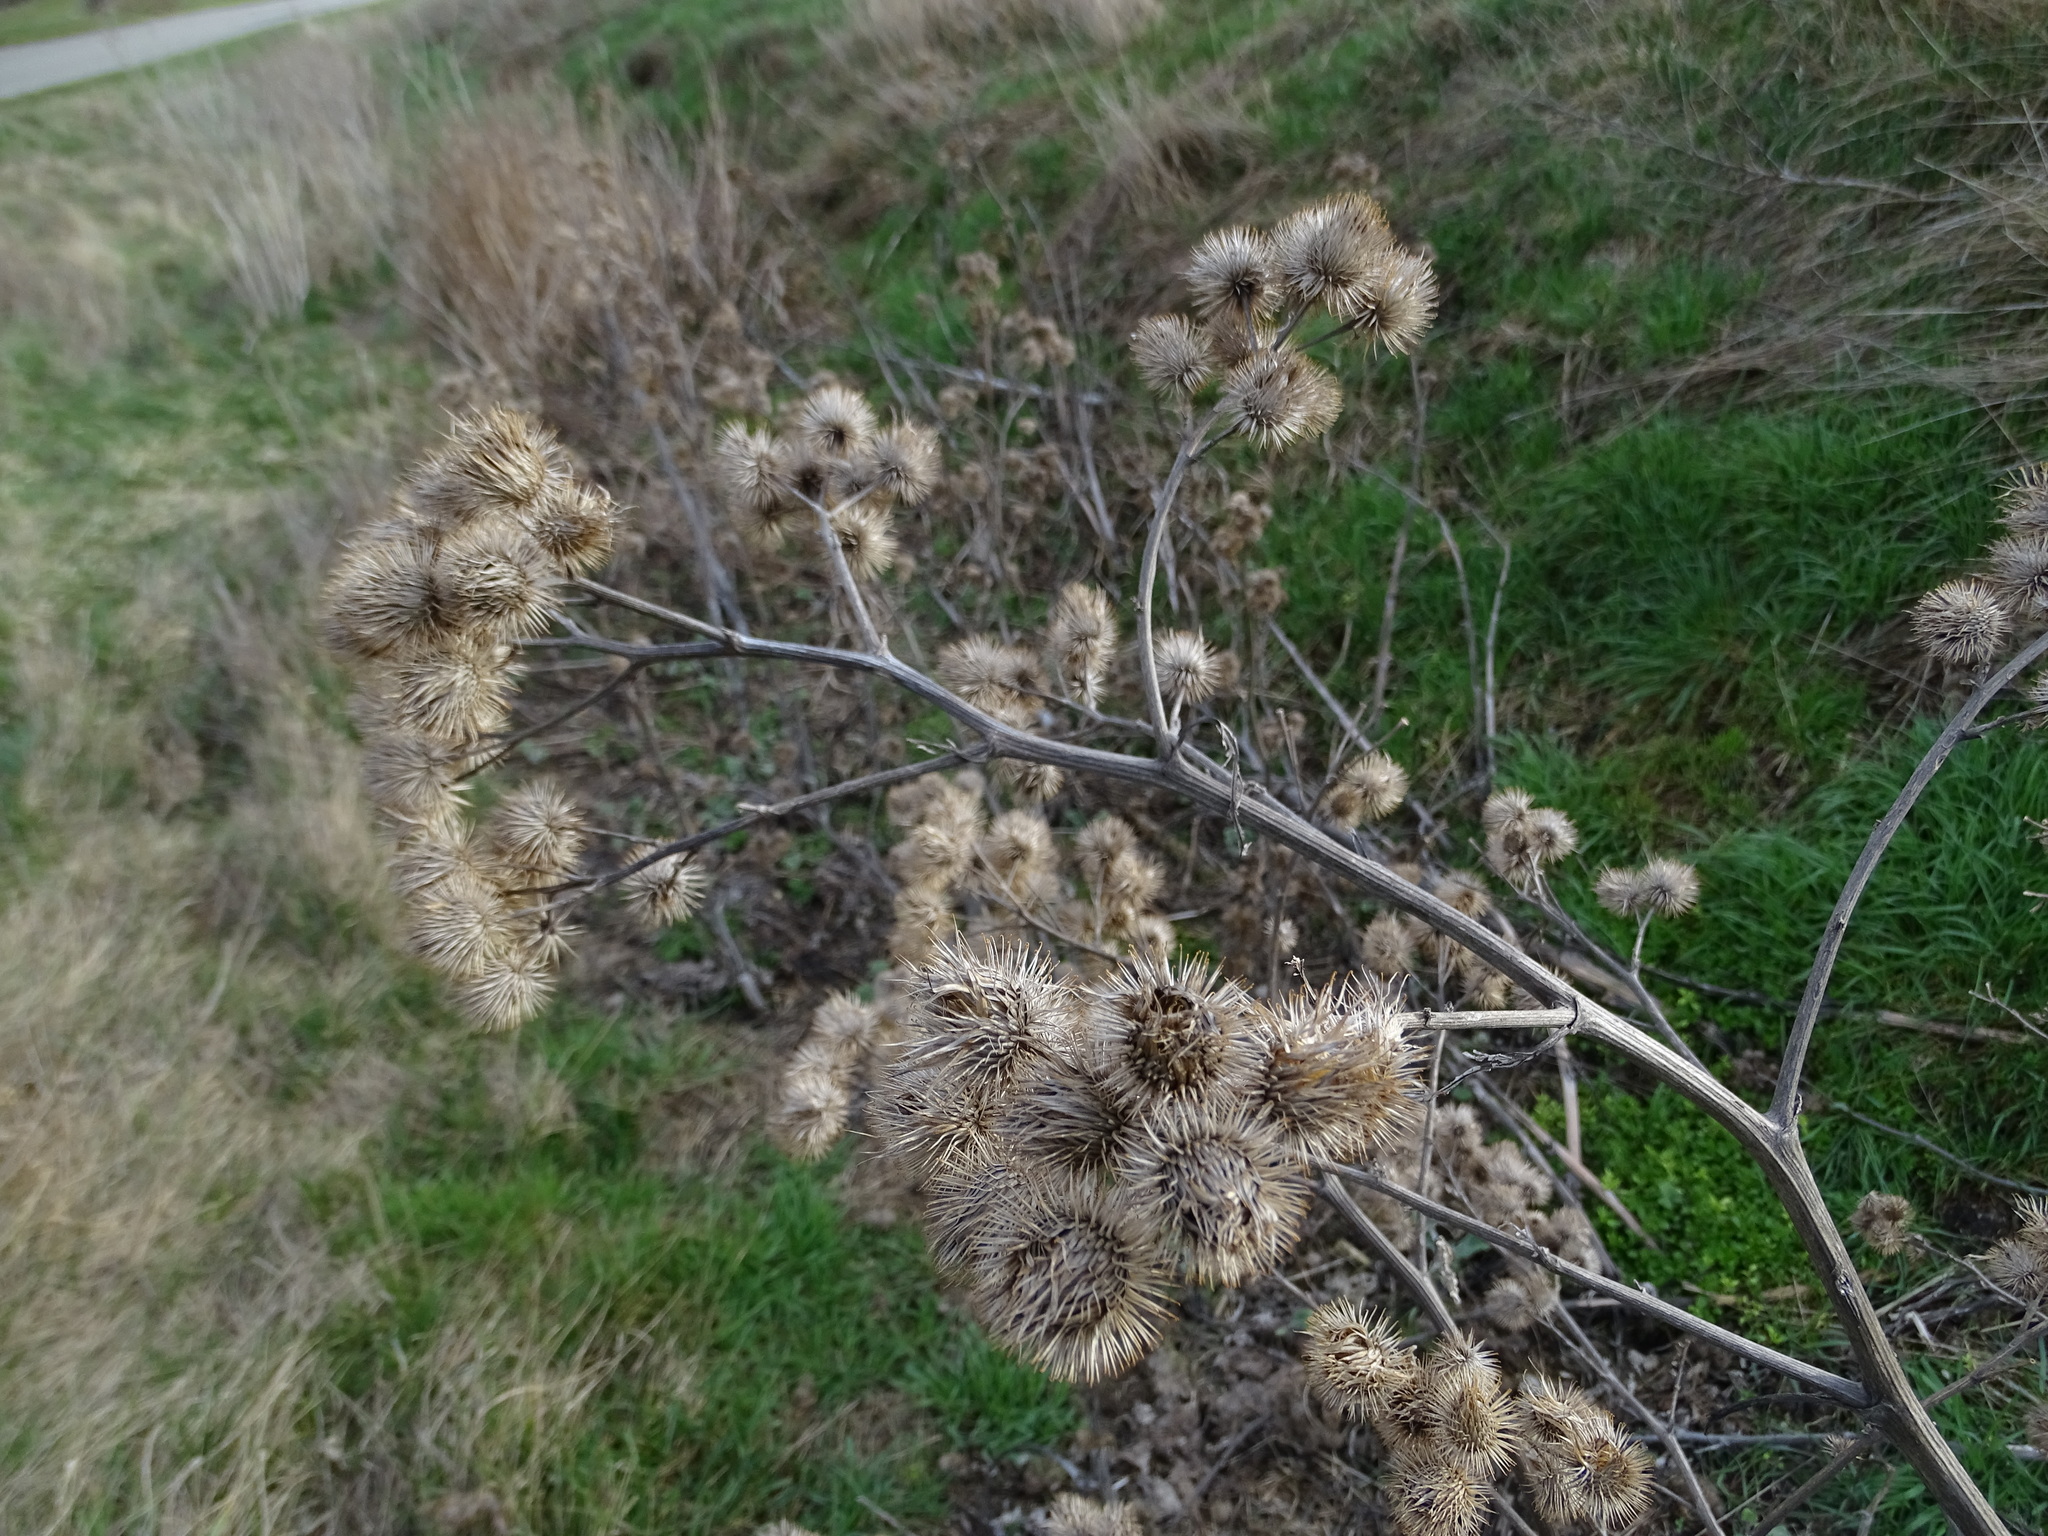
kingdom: Plantae
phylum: Tracheophyta
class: Magnoliopsida
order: Asterales
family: Asteraceae
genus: Arctium
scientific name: Arctium lappa
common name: Greater burdock
